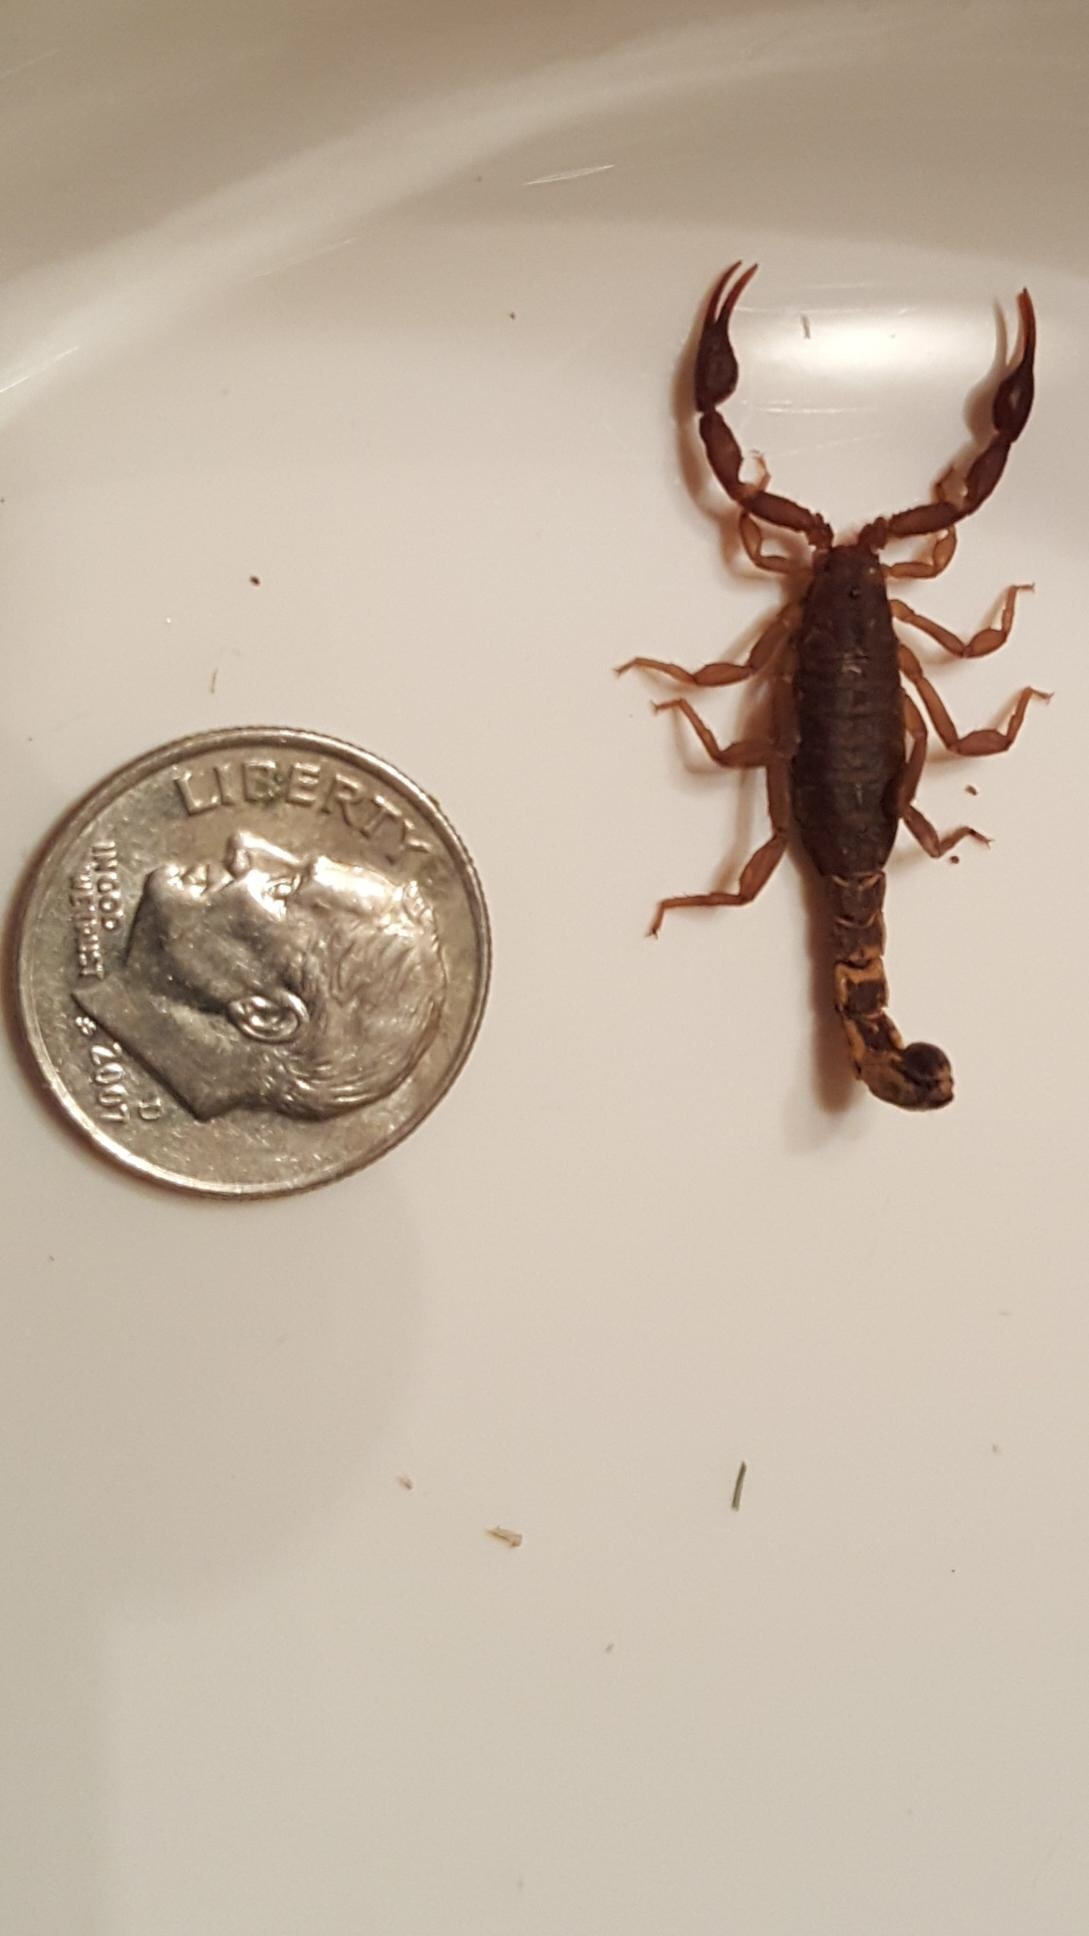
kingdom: Animalia
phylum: Arthropoda
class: Arachnida
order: Scorpiones
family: Vaejovidae
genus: Vaejovis
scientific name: Vaejovis carolinianus
